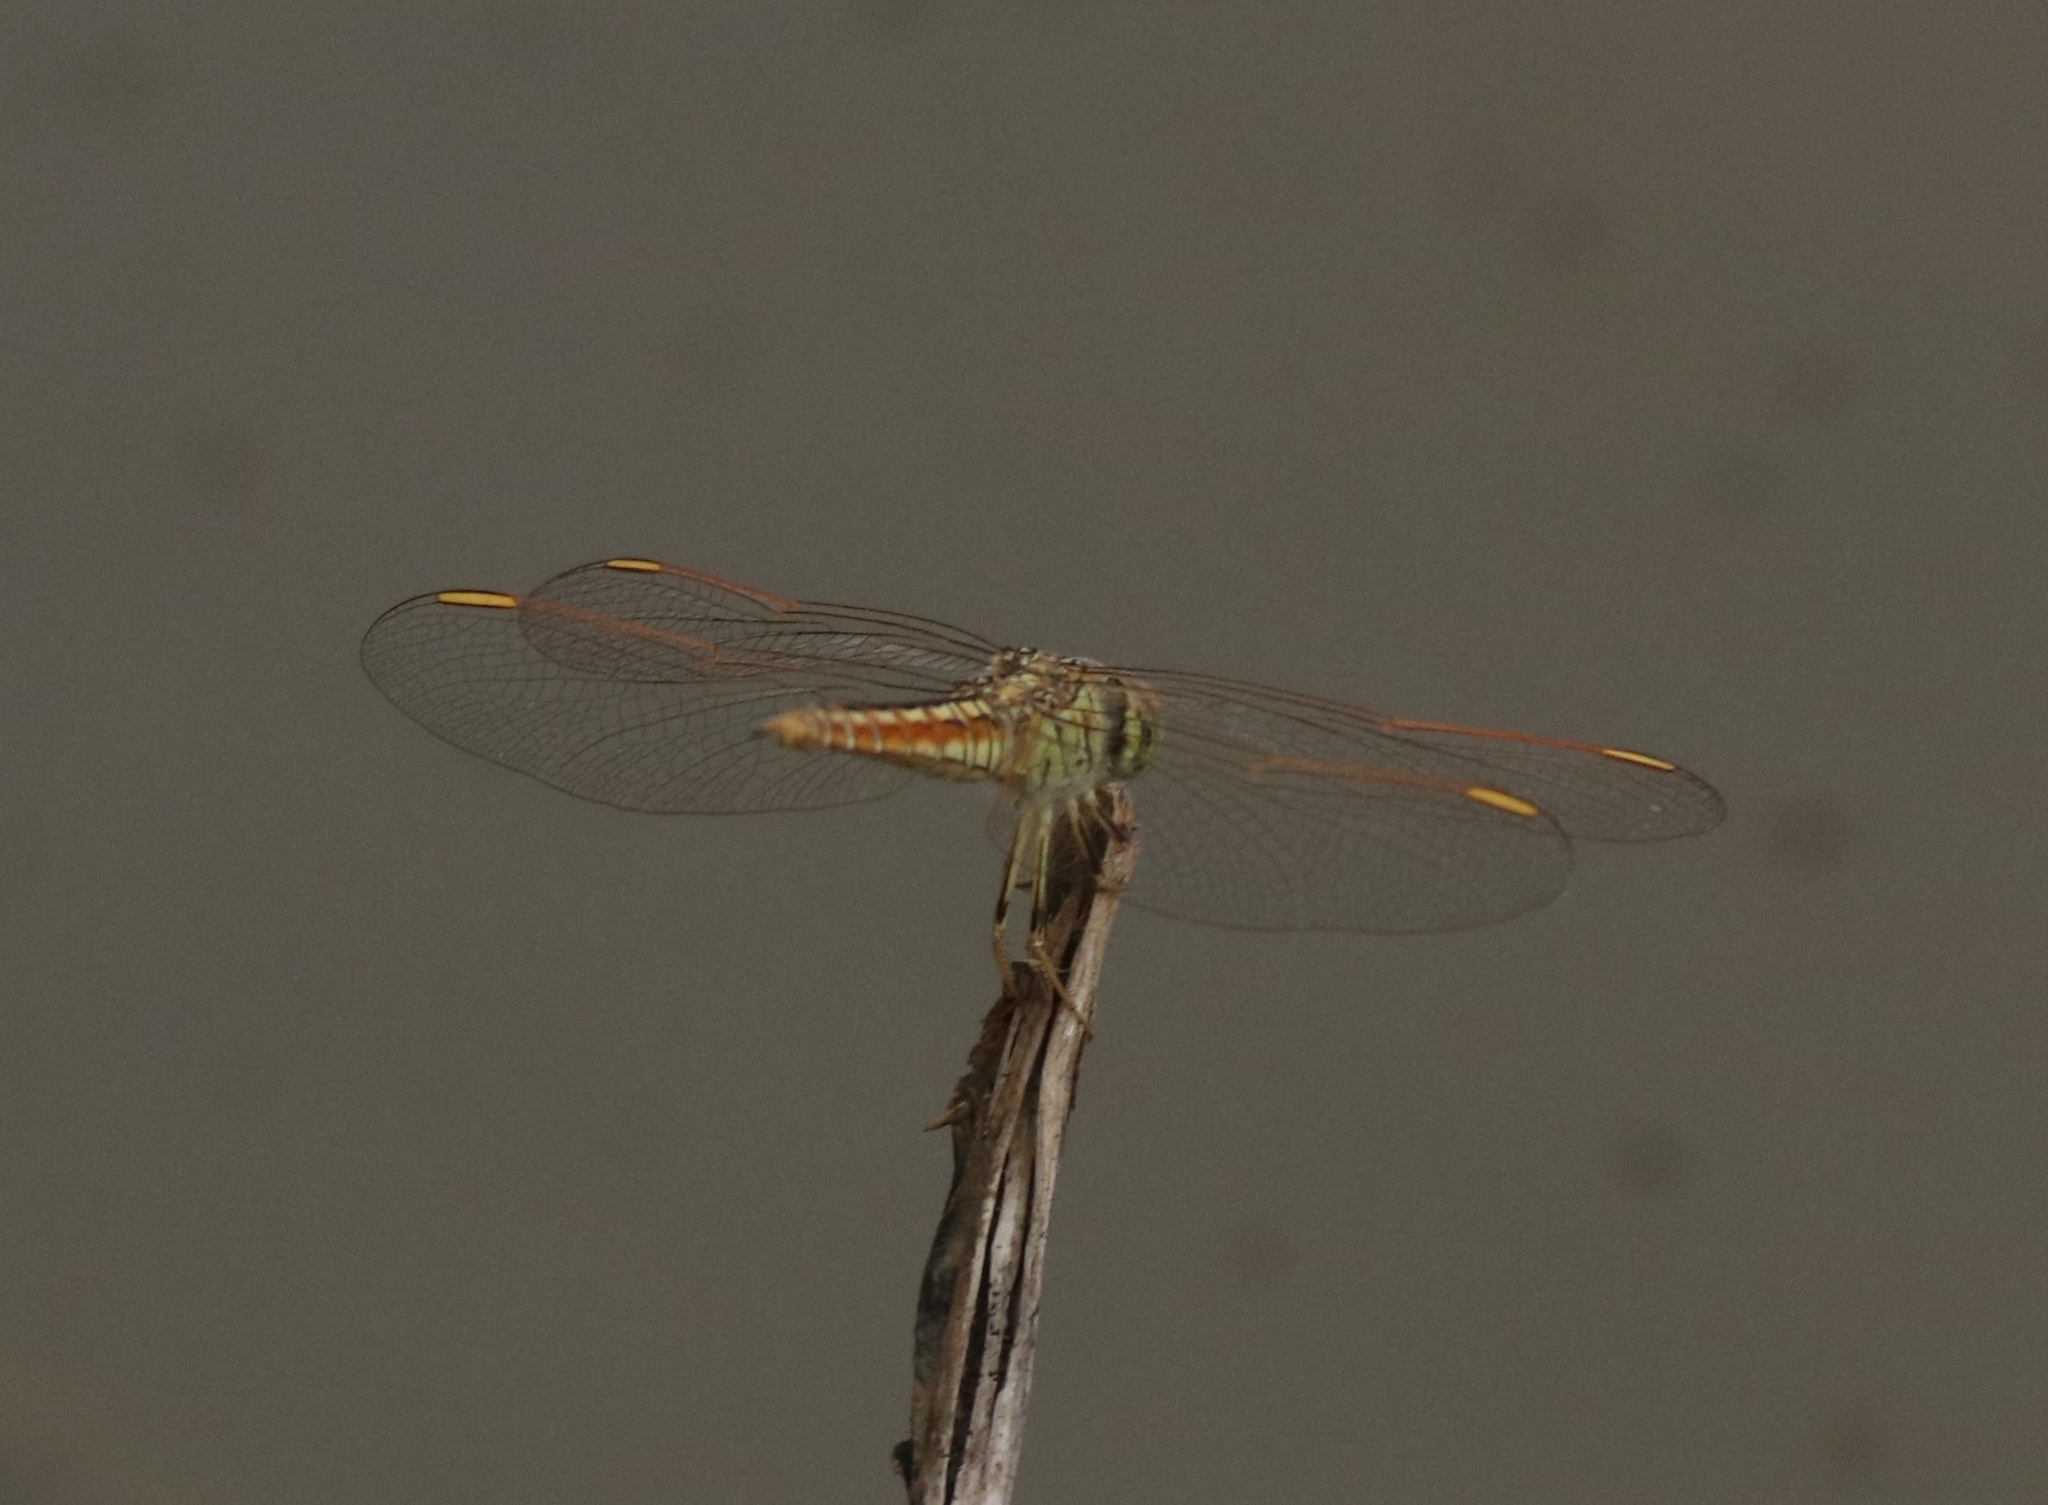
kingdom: Animalia
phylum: Arthropoda
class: Insecta
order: Odonata
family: Libellulidae
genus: Brachythemis
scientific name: Brachythemis contaminata
